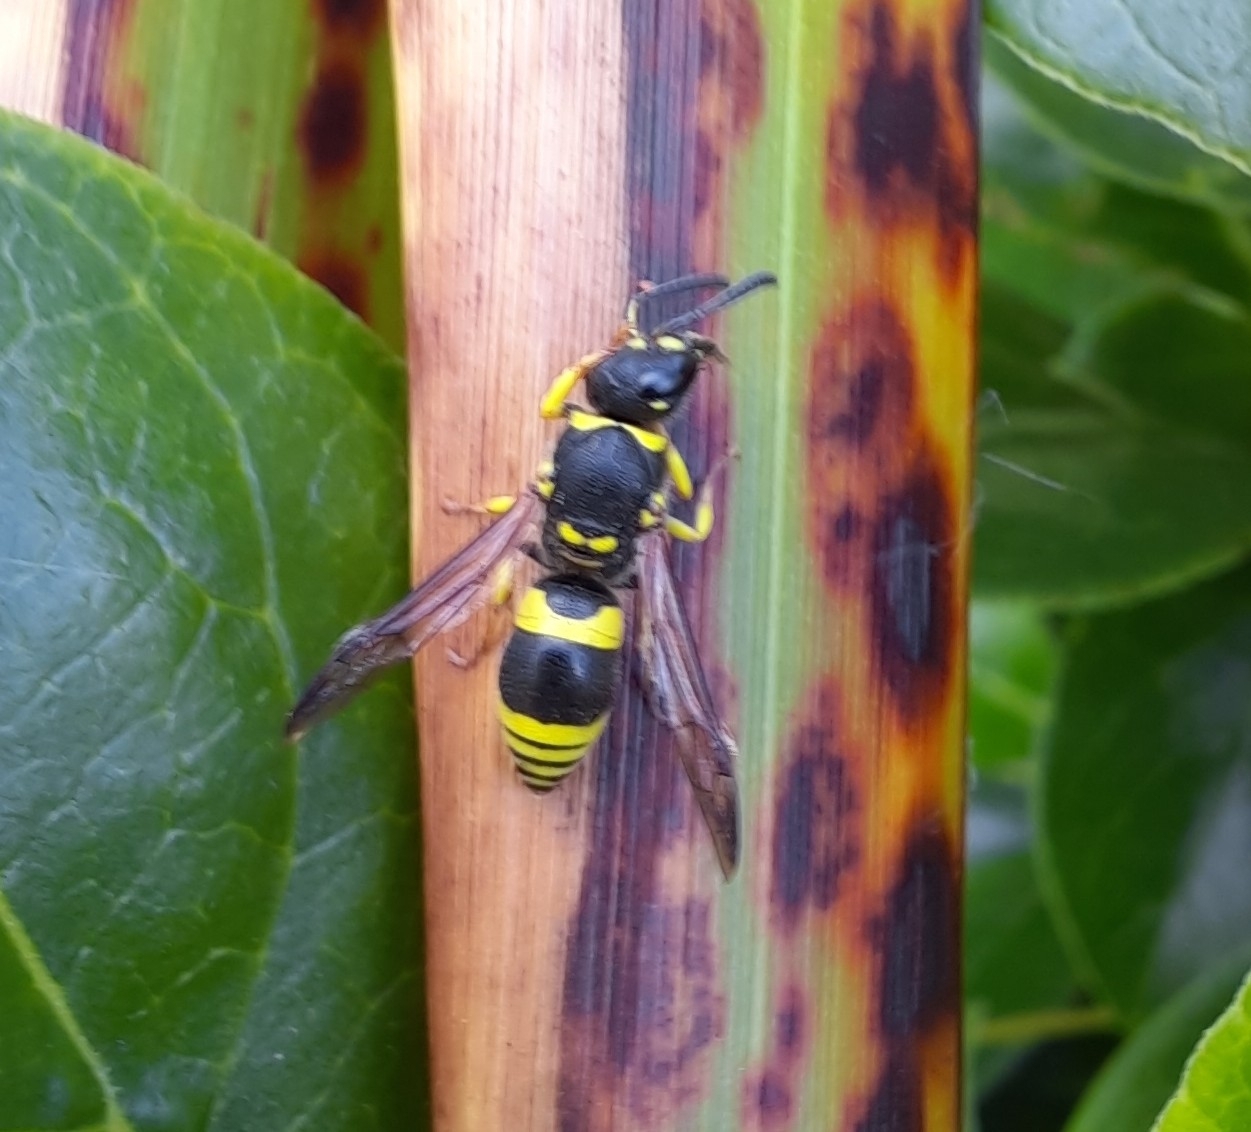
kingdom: Animalia
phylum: Arthropoda
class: Insecta
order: Hymenoptera
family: Vespidae
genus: Ancistrocerus
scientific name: Ancistrocerus gazella
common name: European tube wasp
